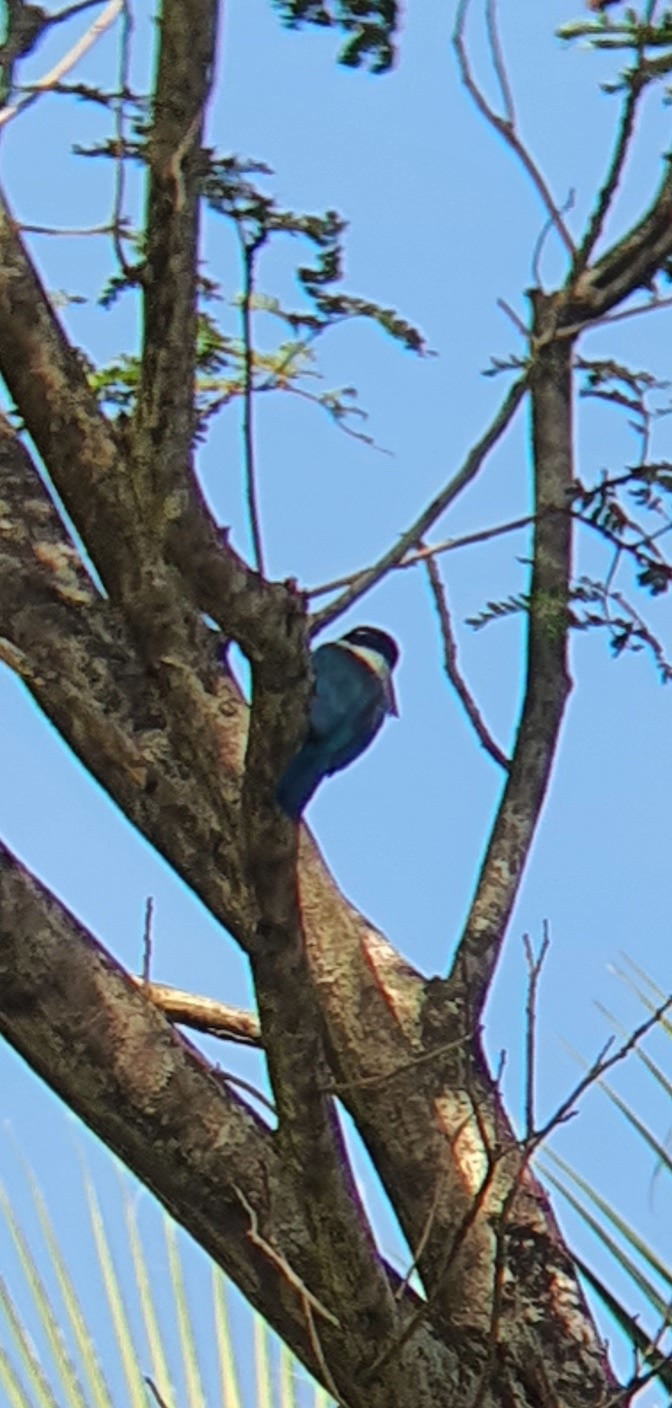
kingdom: Animalia
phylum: Chordata
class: Aves
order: Coraciiformes
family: Alcedinidae
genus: Todiramphus
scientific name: Todiramphus chloris
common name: Collared kingfisher
